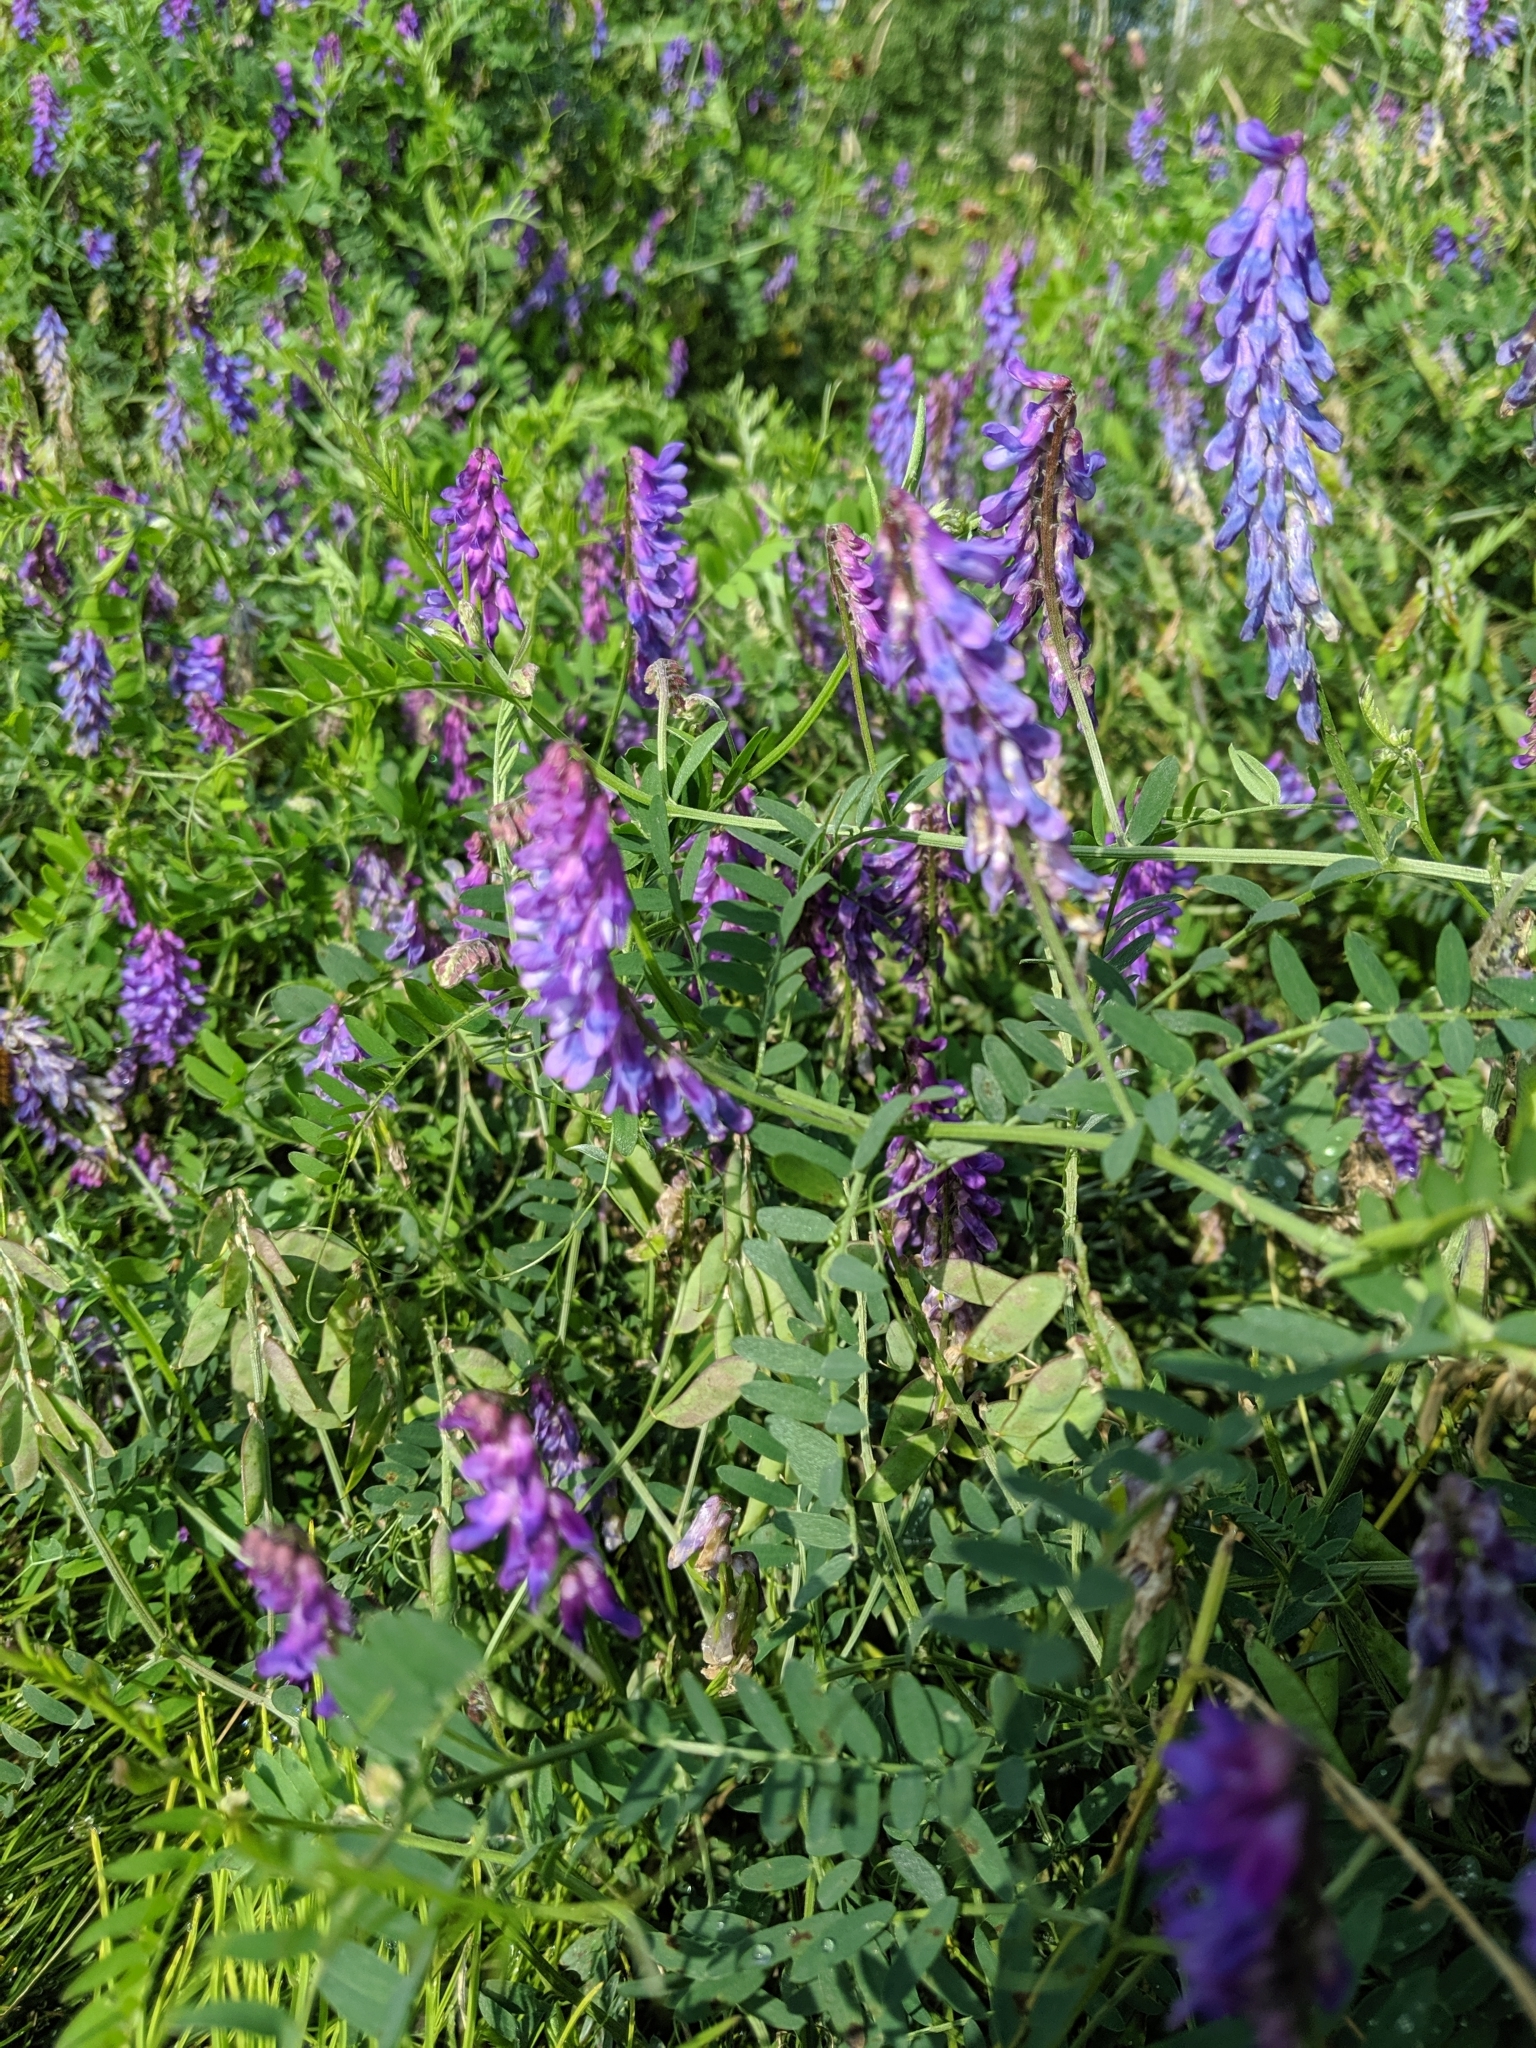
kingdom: Plantae
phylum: Tracheophyta
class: Magnoliopsida
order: Fabales
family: Fabaceae
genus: Vicia
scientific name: Vicia cracca
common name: Bird vetch
